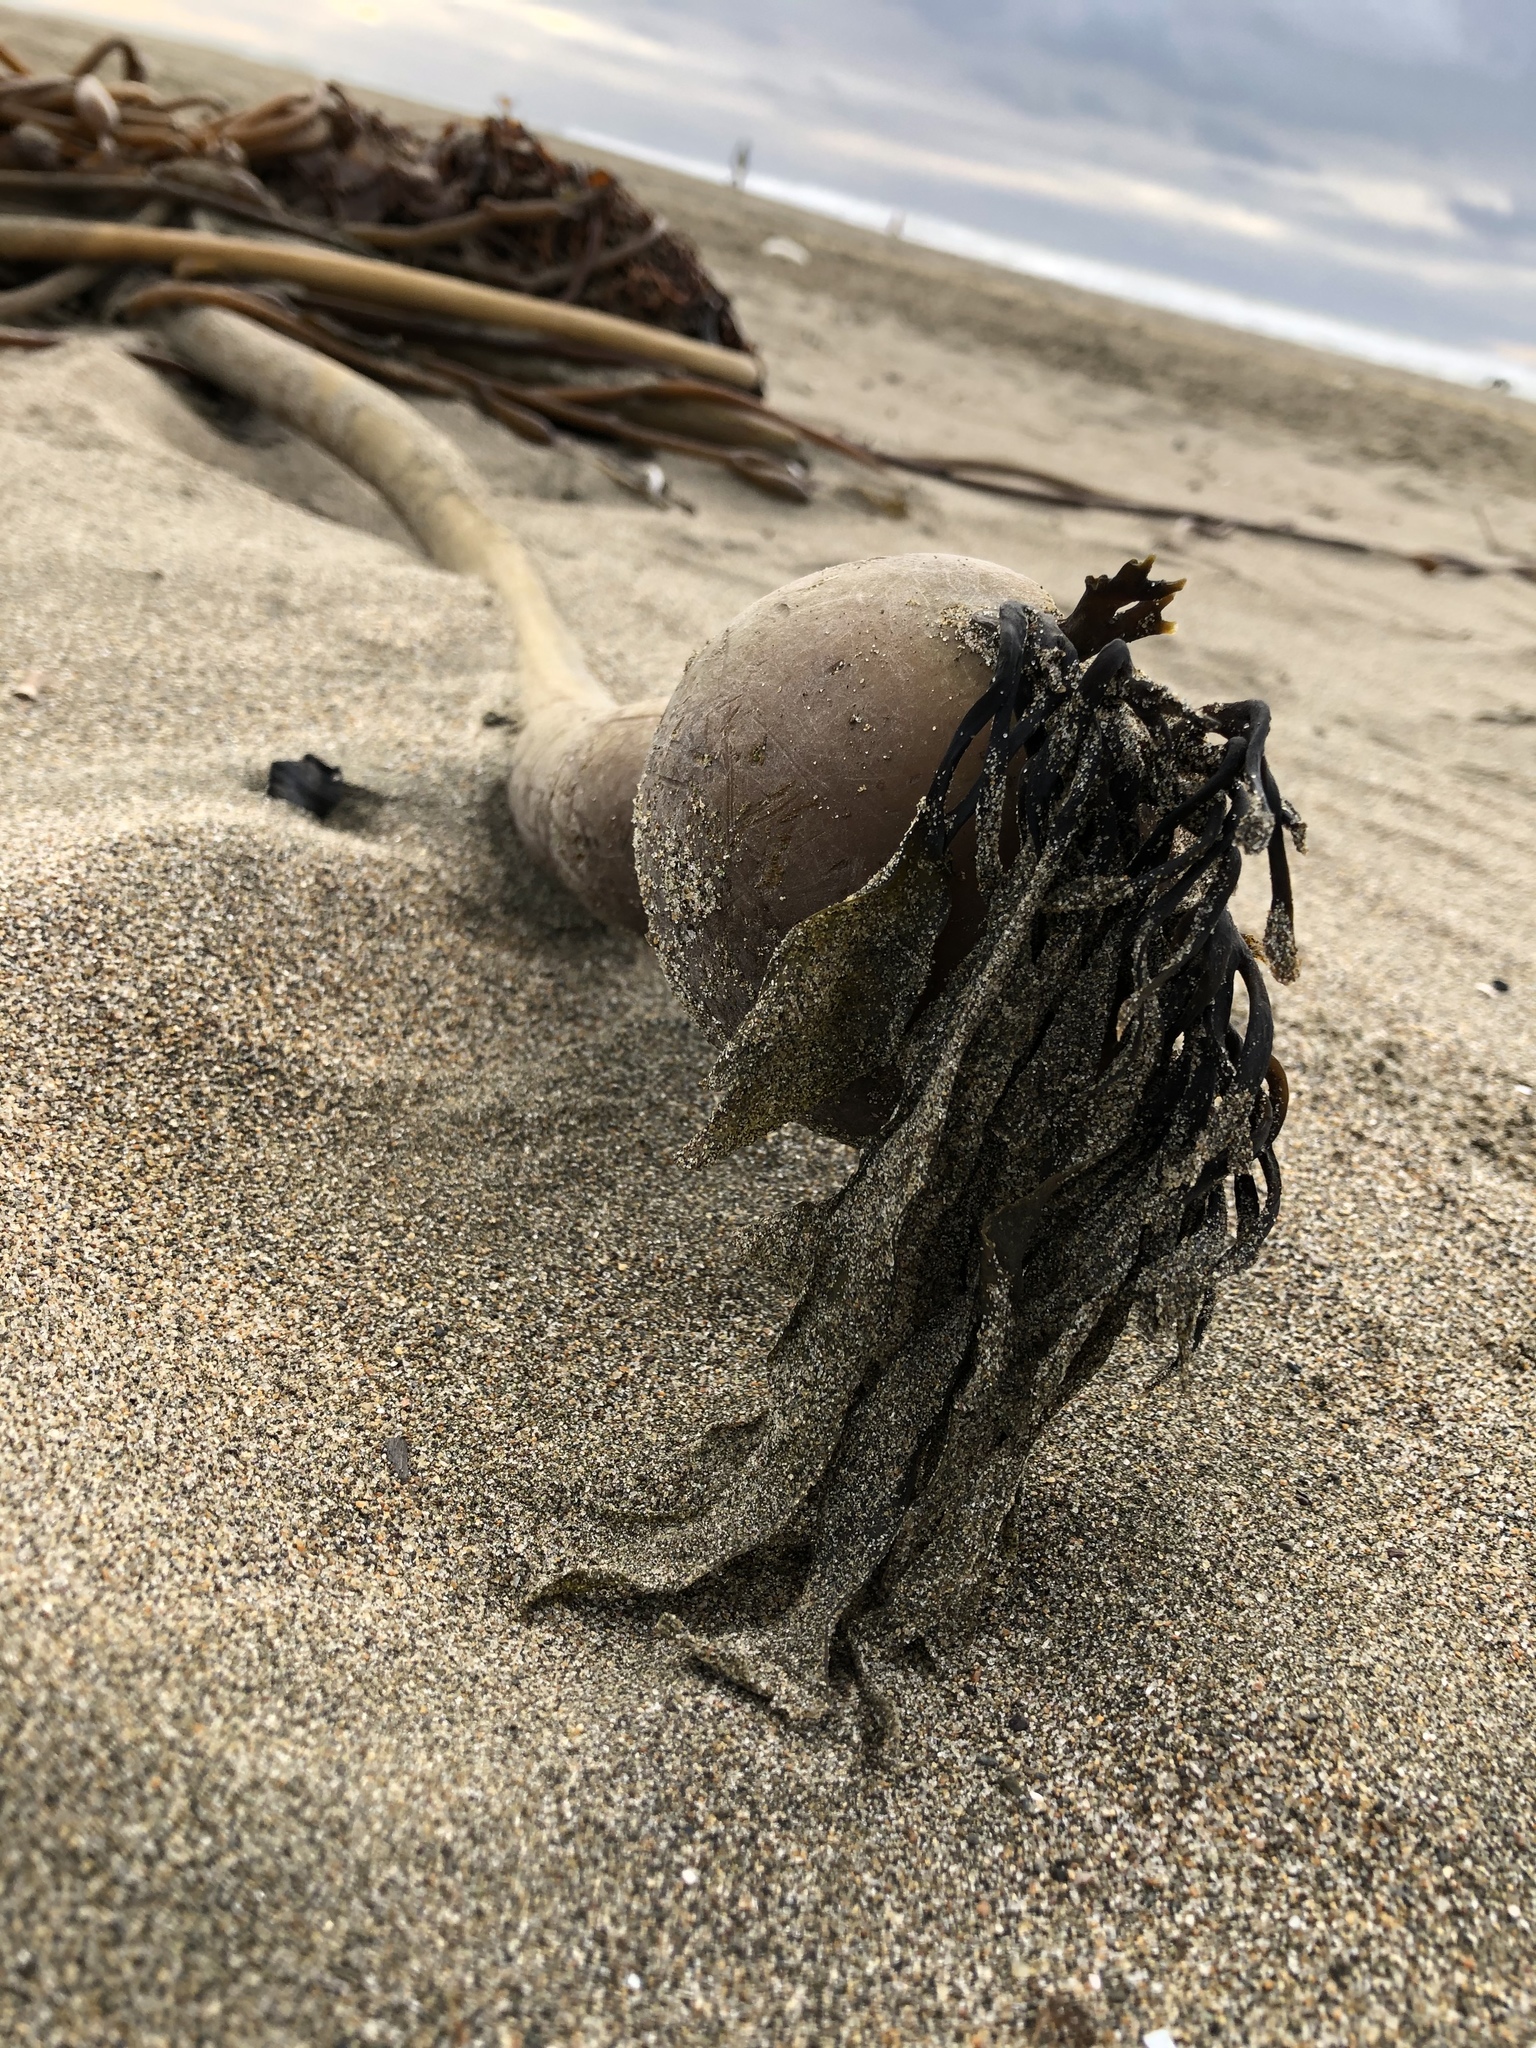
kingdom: Chromista
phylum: Ochrophyta
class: Phaeophyceae
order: Laminariales
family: Laminariaceae
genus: Nereocystis
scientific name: Nereocystis luetkeana
